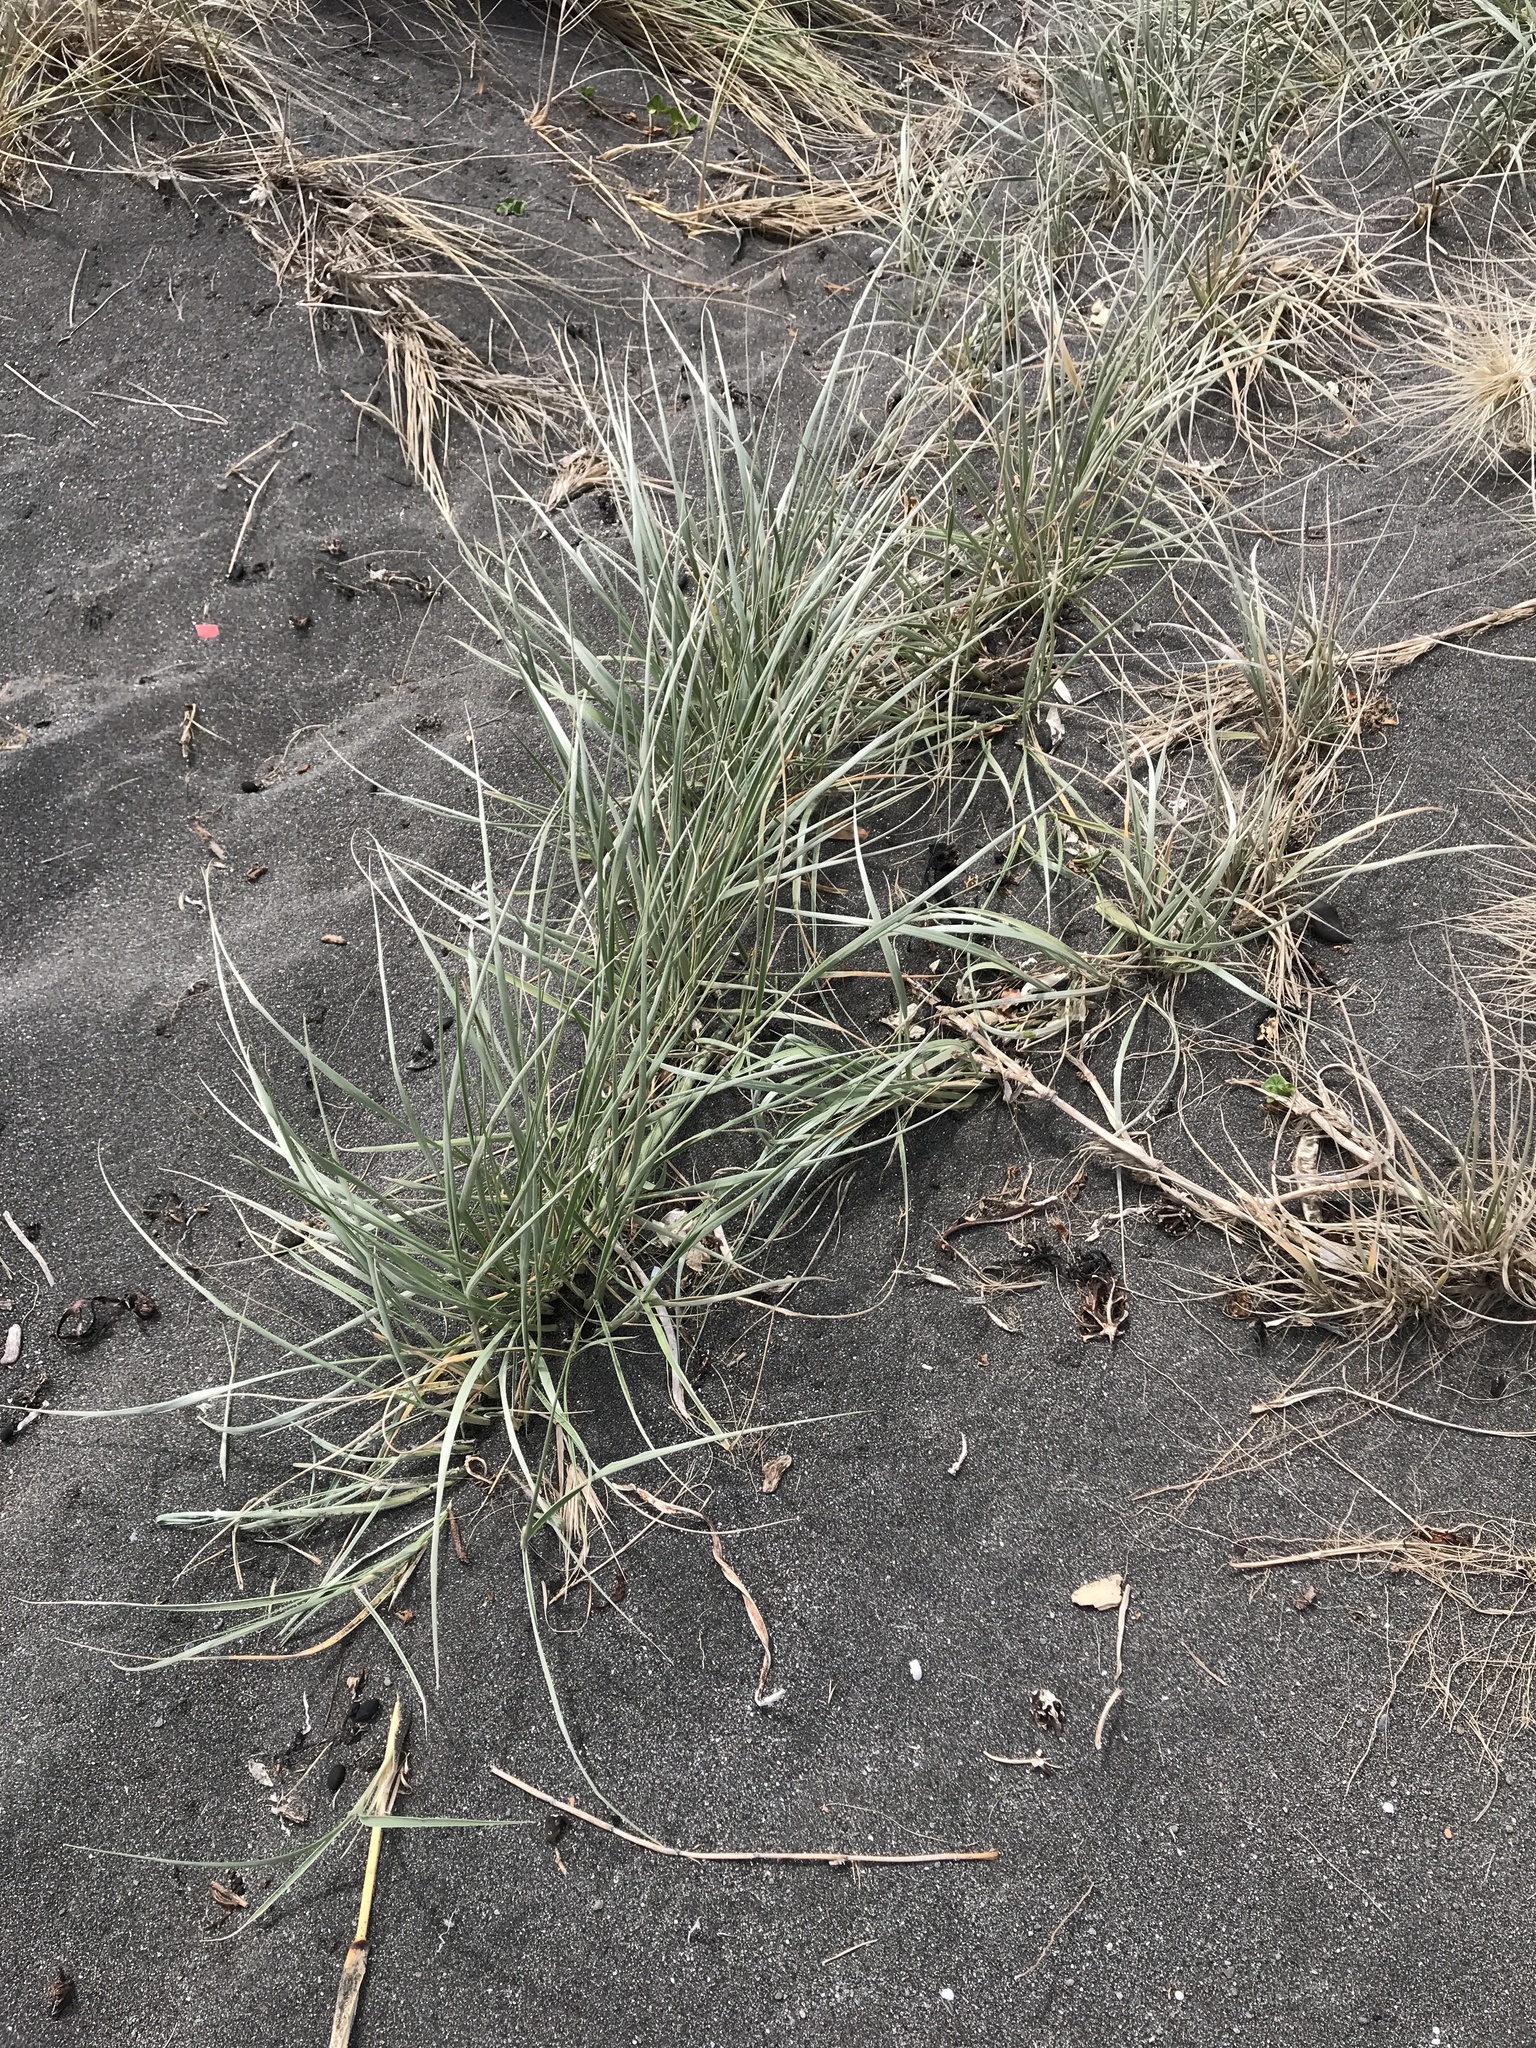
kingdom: Plantae
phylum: Tracheophyta
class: Liliopsida
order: Poales
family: Poaceae
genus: Spinifex
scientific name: Spinifex sericeus
